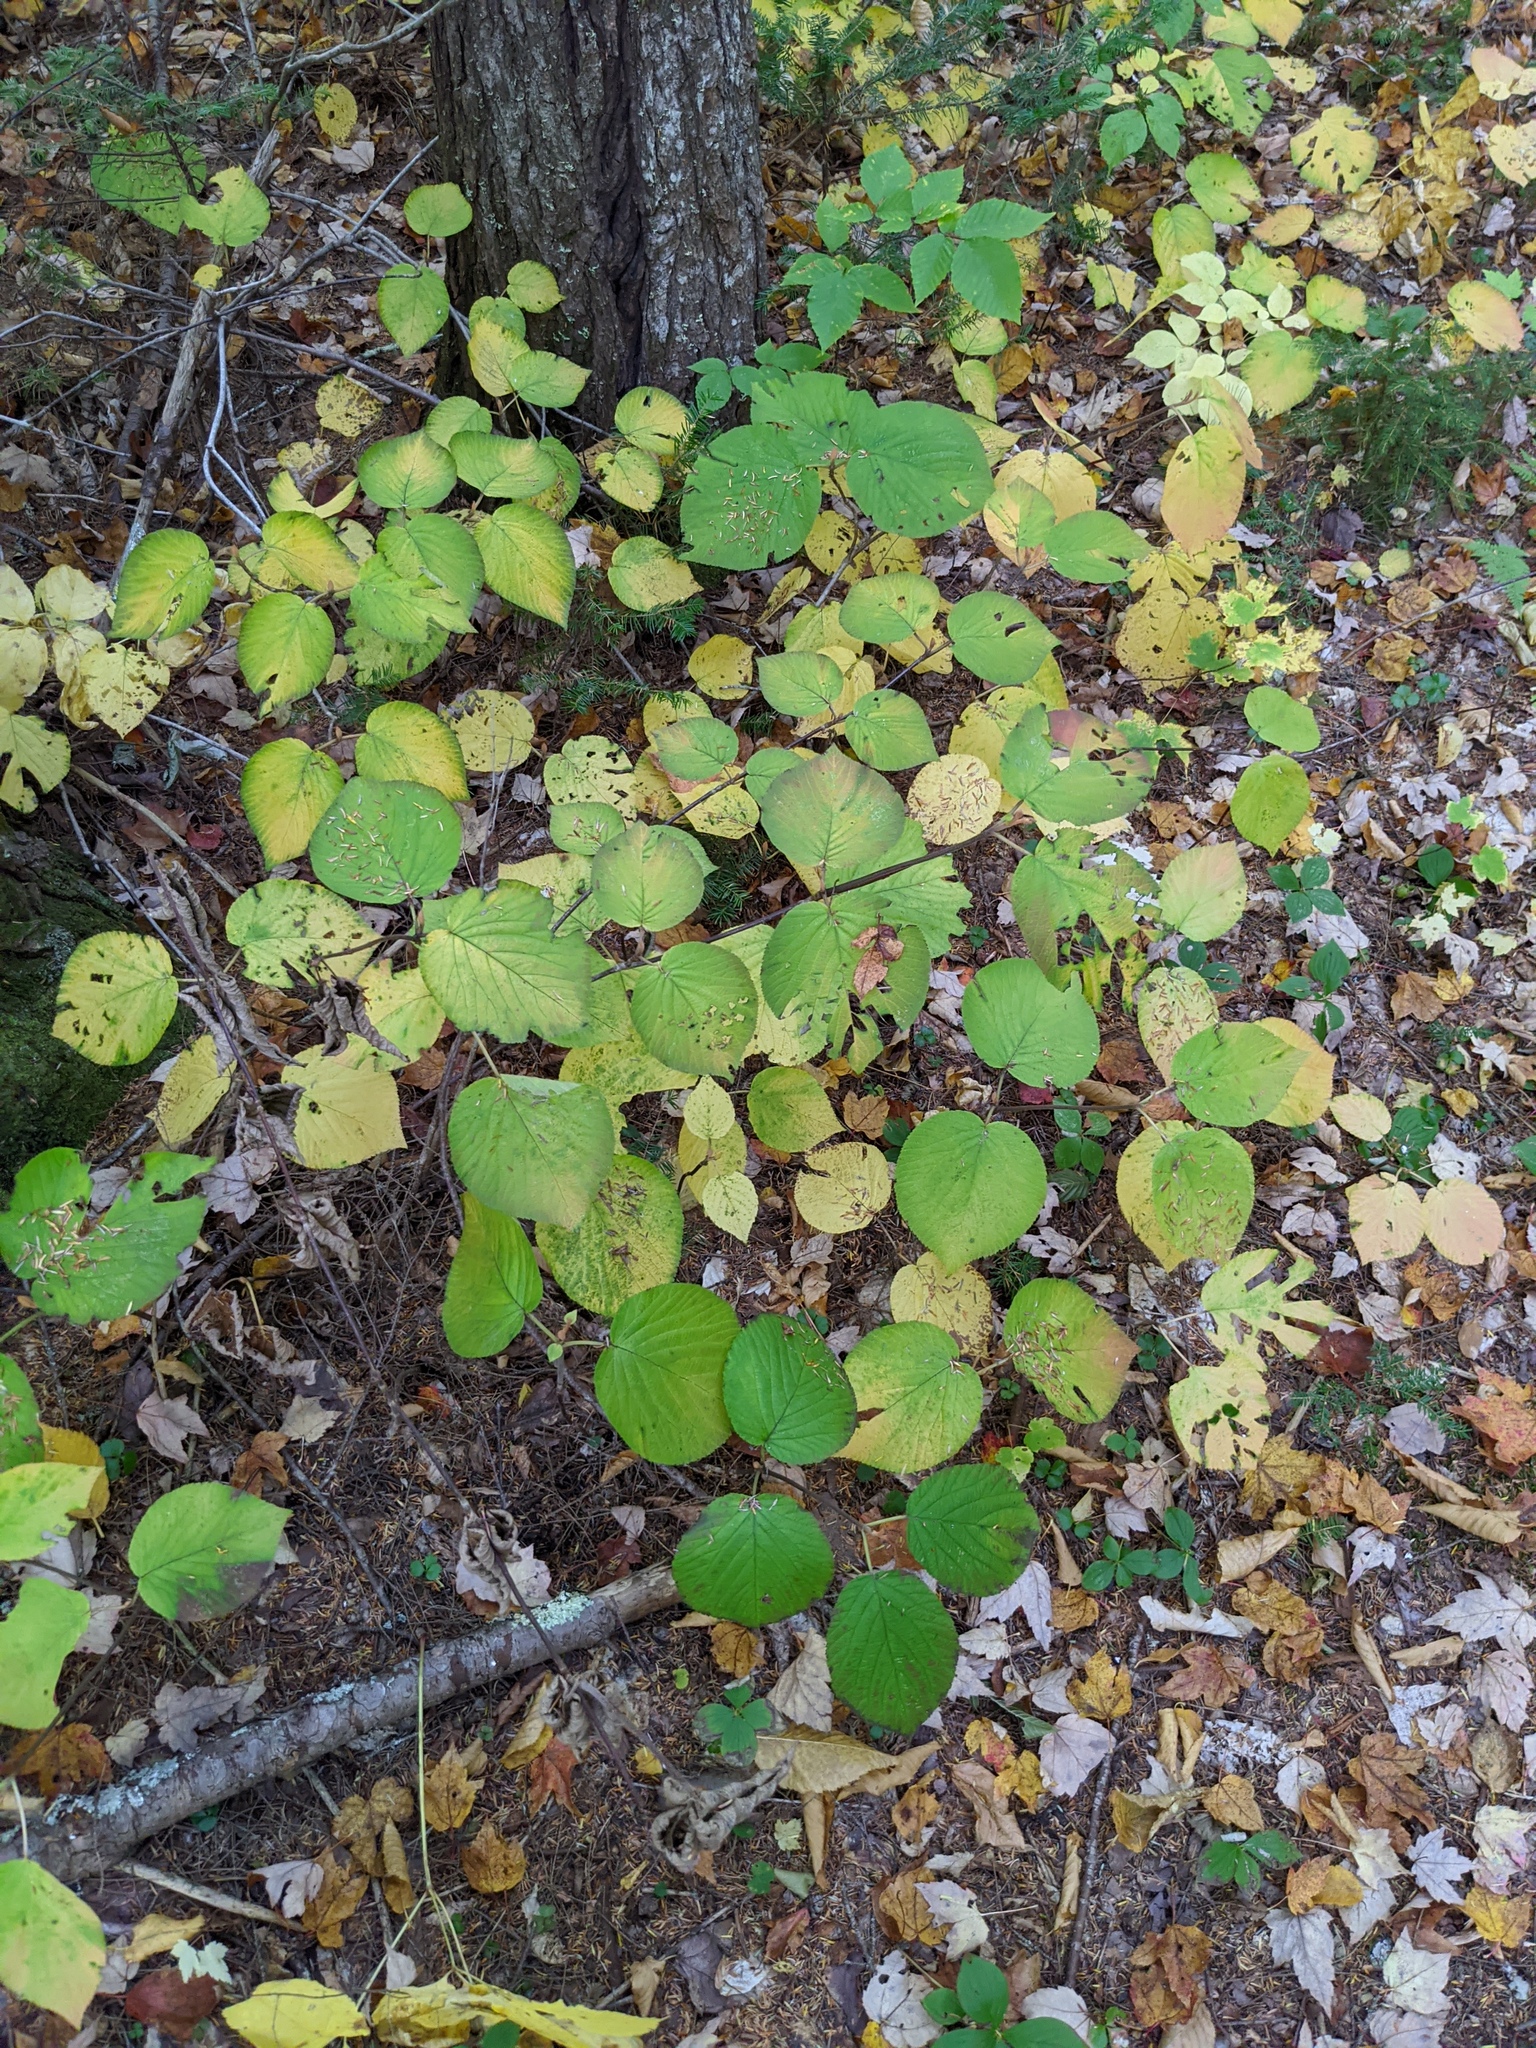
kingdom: Plantae
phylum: Tracheophyta
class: Magnoliopsida
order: Dipsacales
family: Viburnaceae
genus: Viburnum
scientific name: Viburnum lantanoides
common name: Hobblebush
